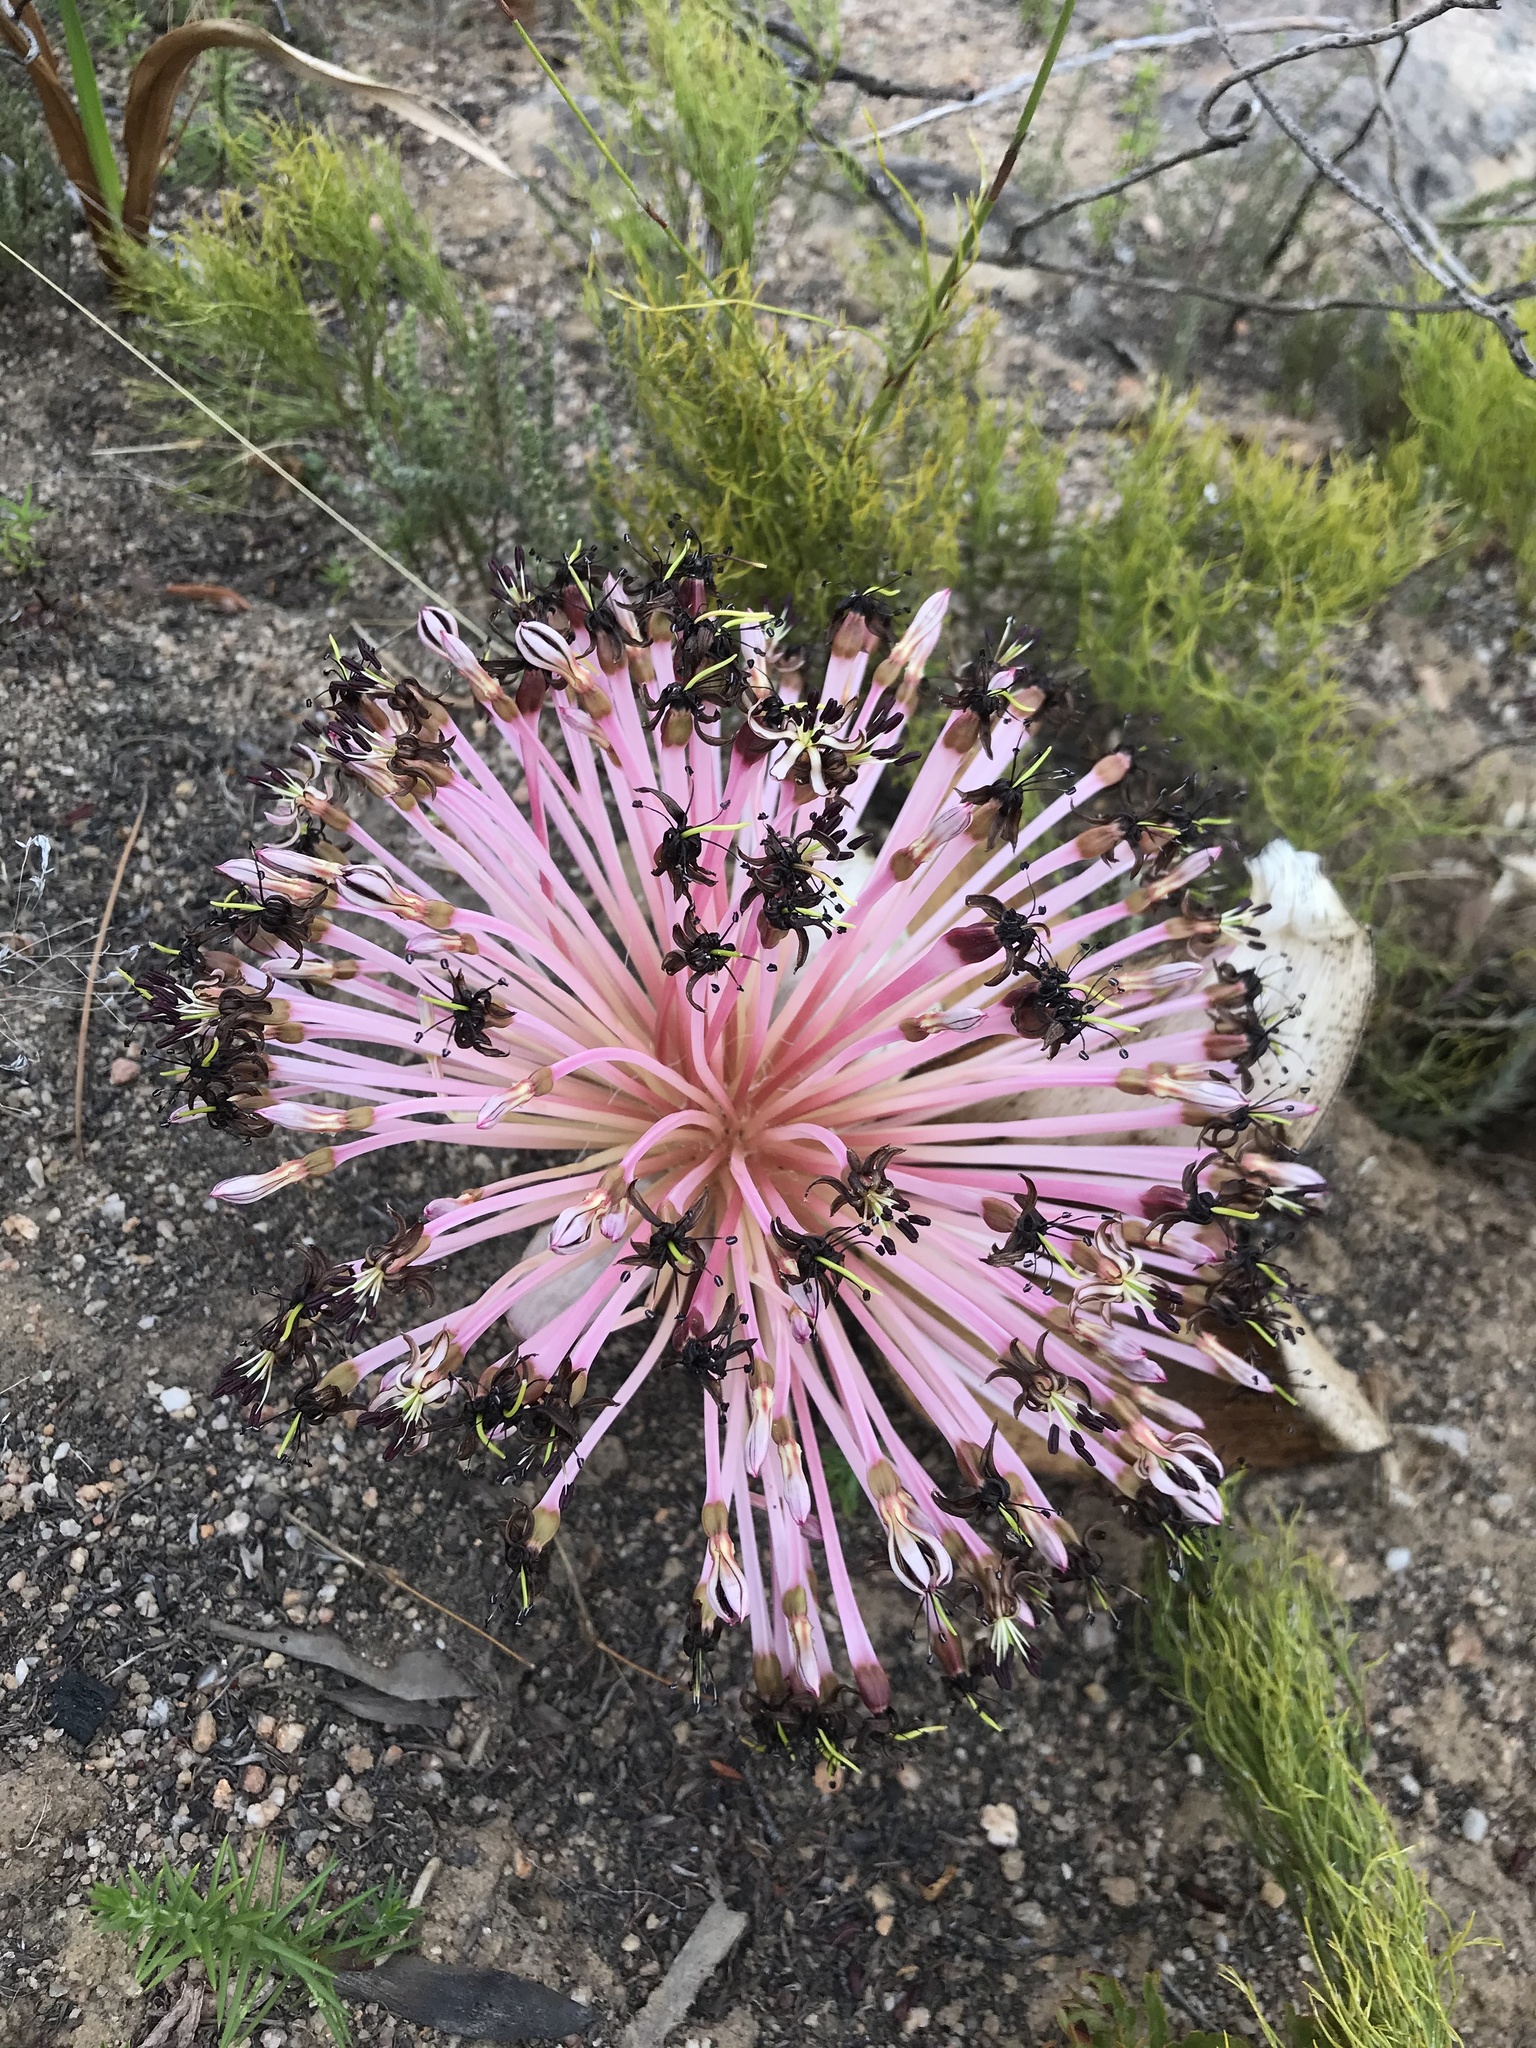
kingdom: Plantae
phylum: Tracheophyta
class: Liliopsida
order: Asparagales
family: Amaryllidaceae
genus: Crossyne
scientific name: Crossyne guttata
